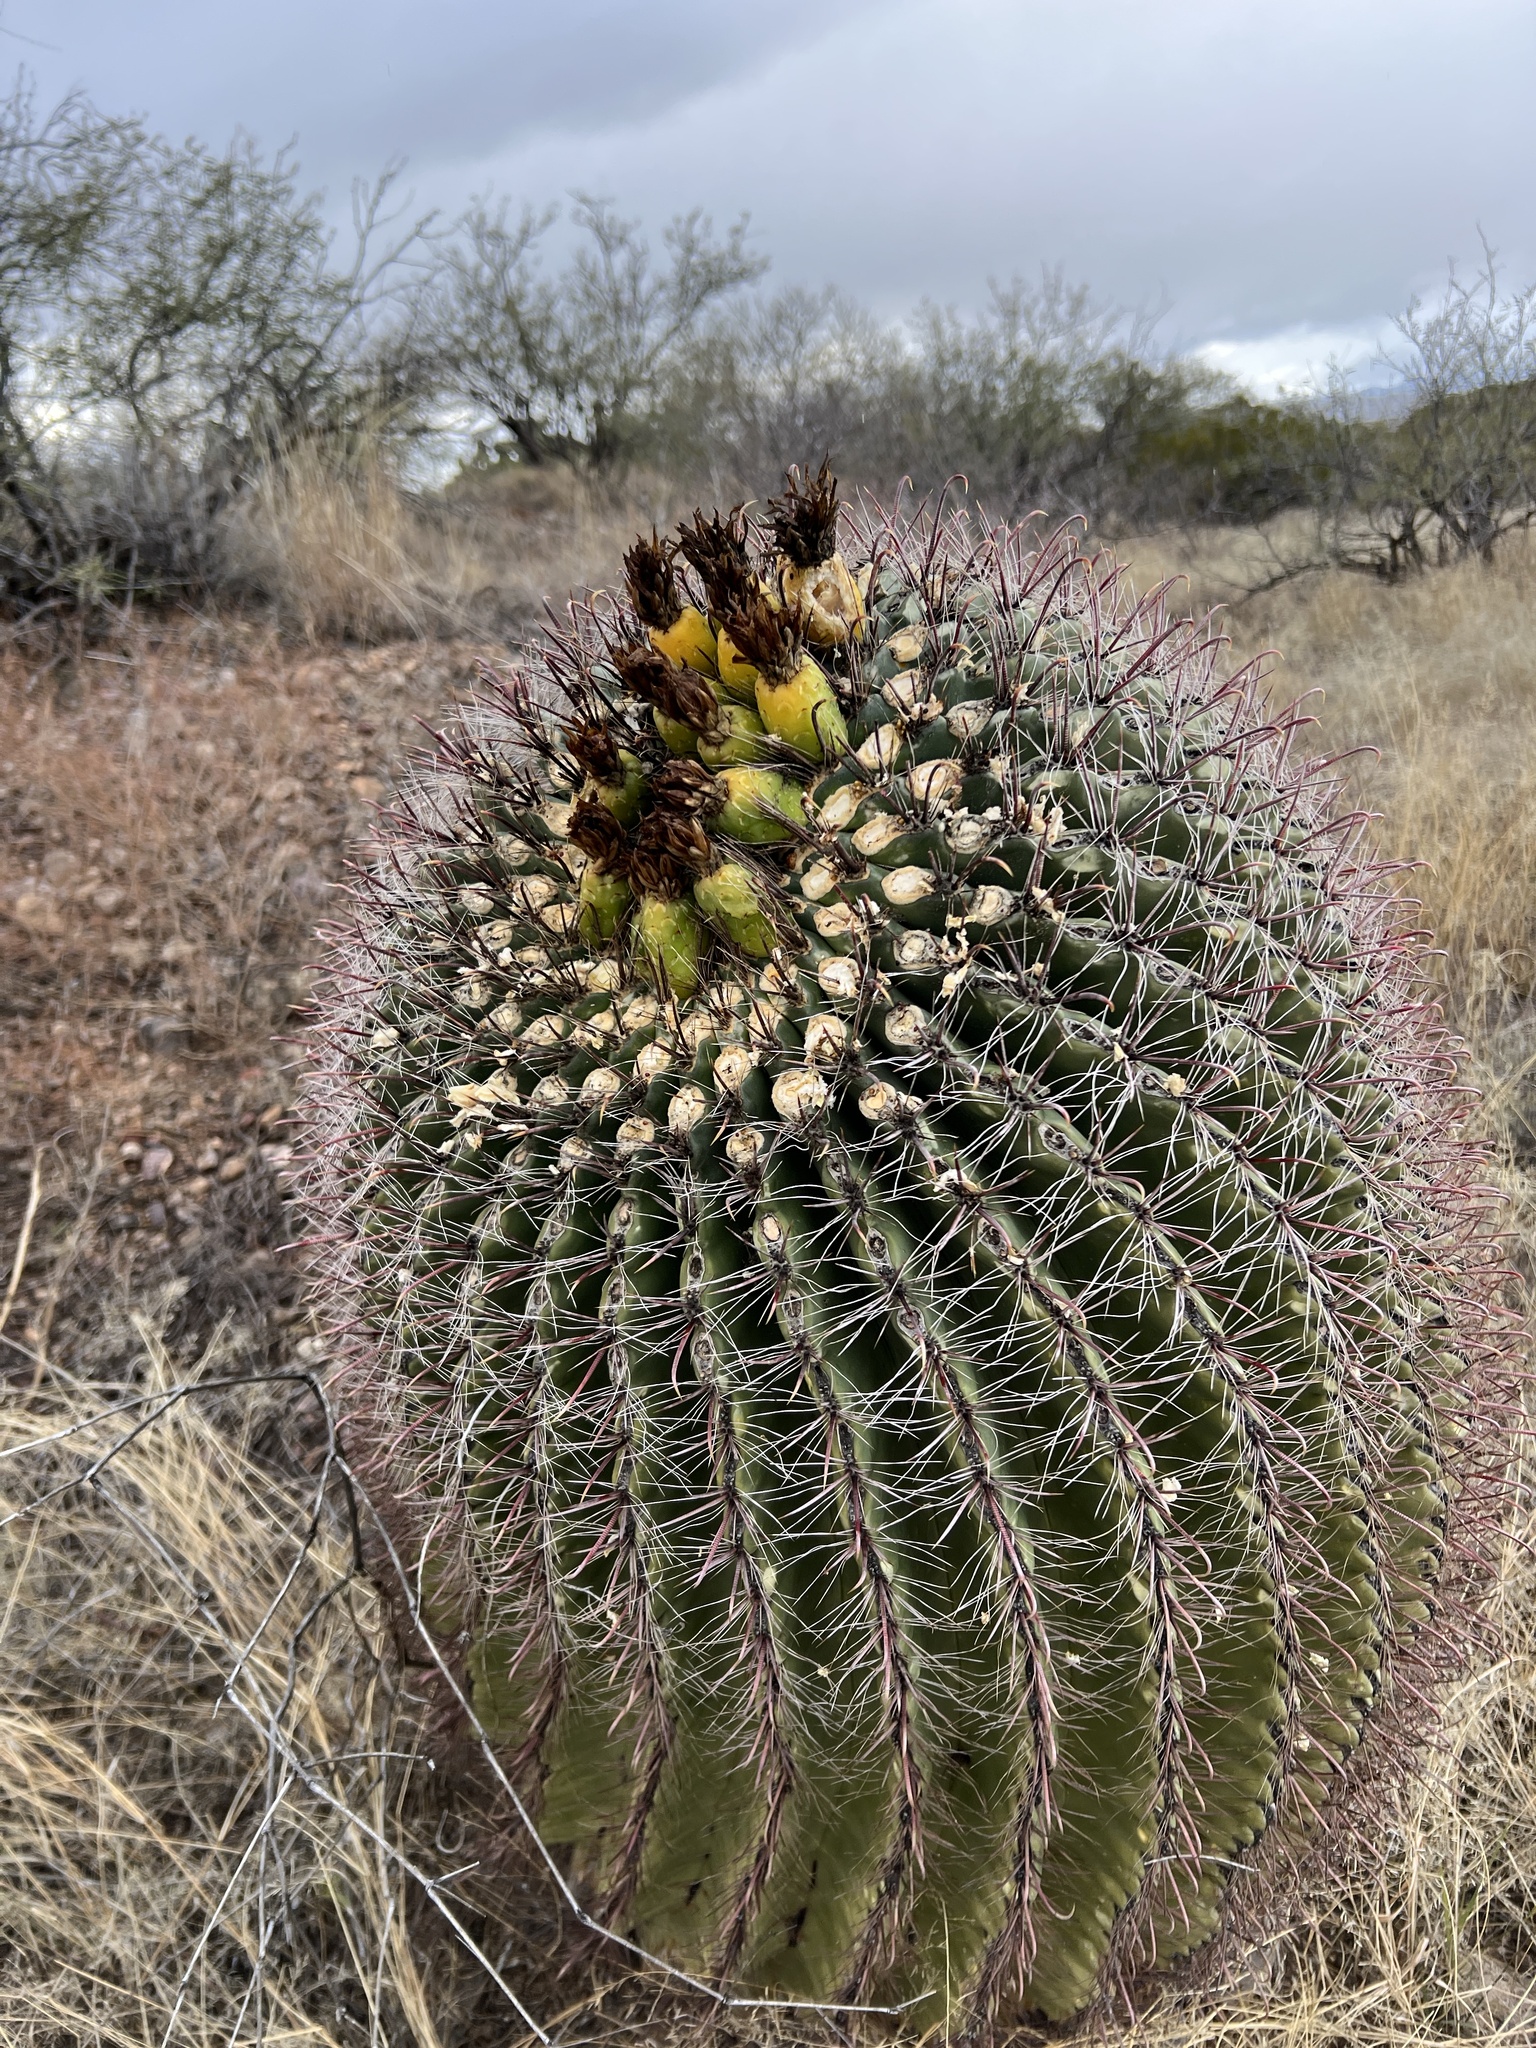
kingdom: Plantae
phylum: Tracheophyta
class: Magnoliopsida
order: Caryophyllales
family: Cactaceae
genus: Ferocactus
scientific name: Ferocactus wislizeni
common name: Candy barrel cactus
